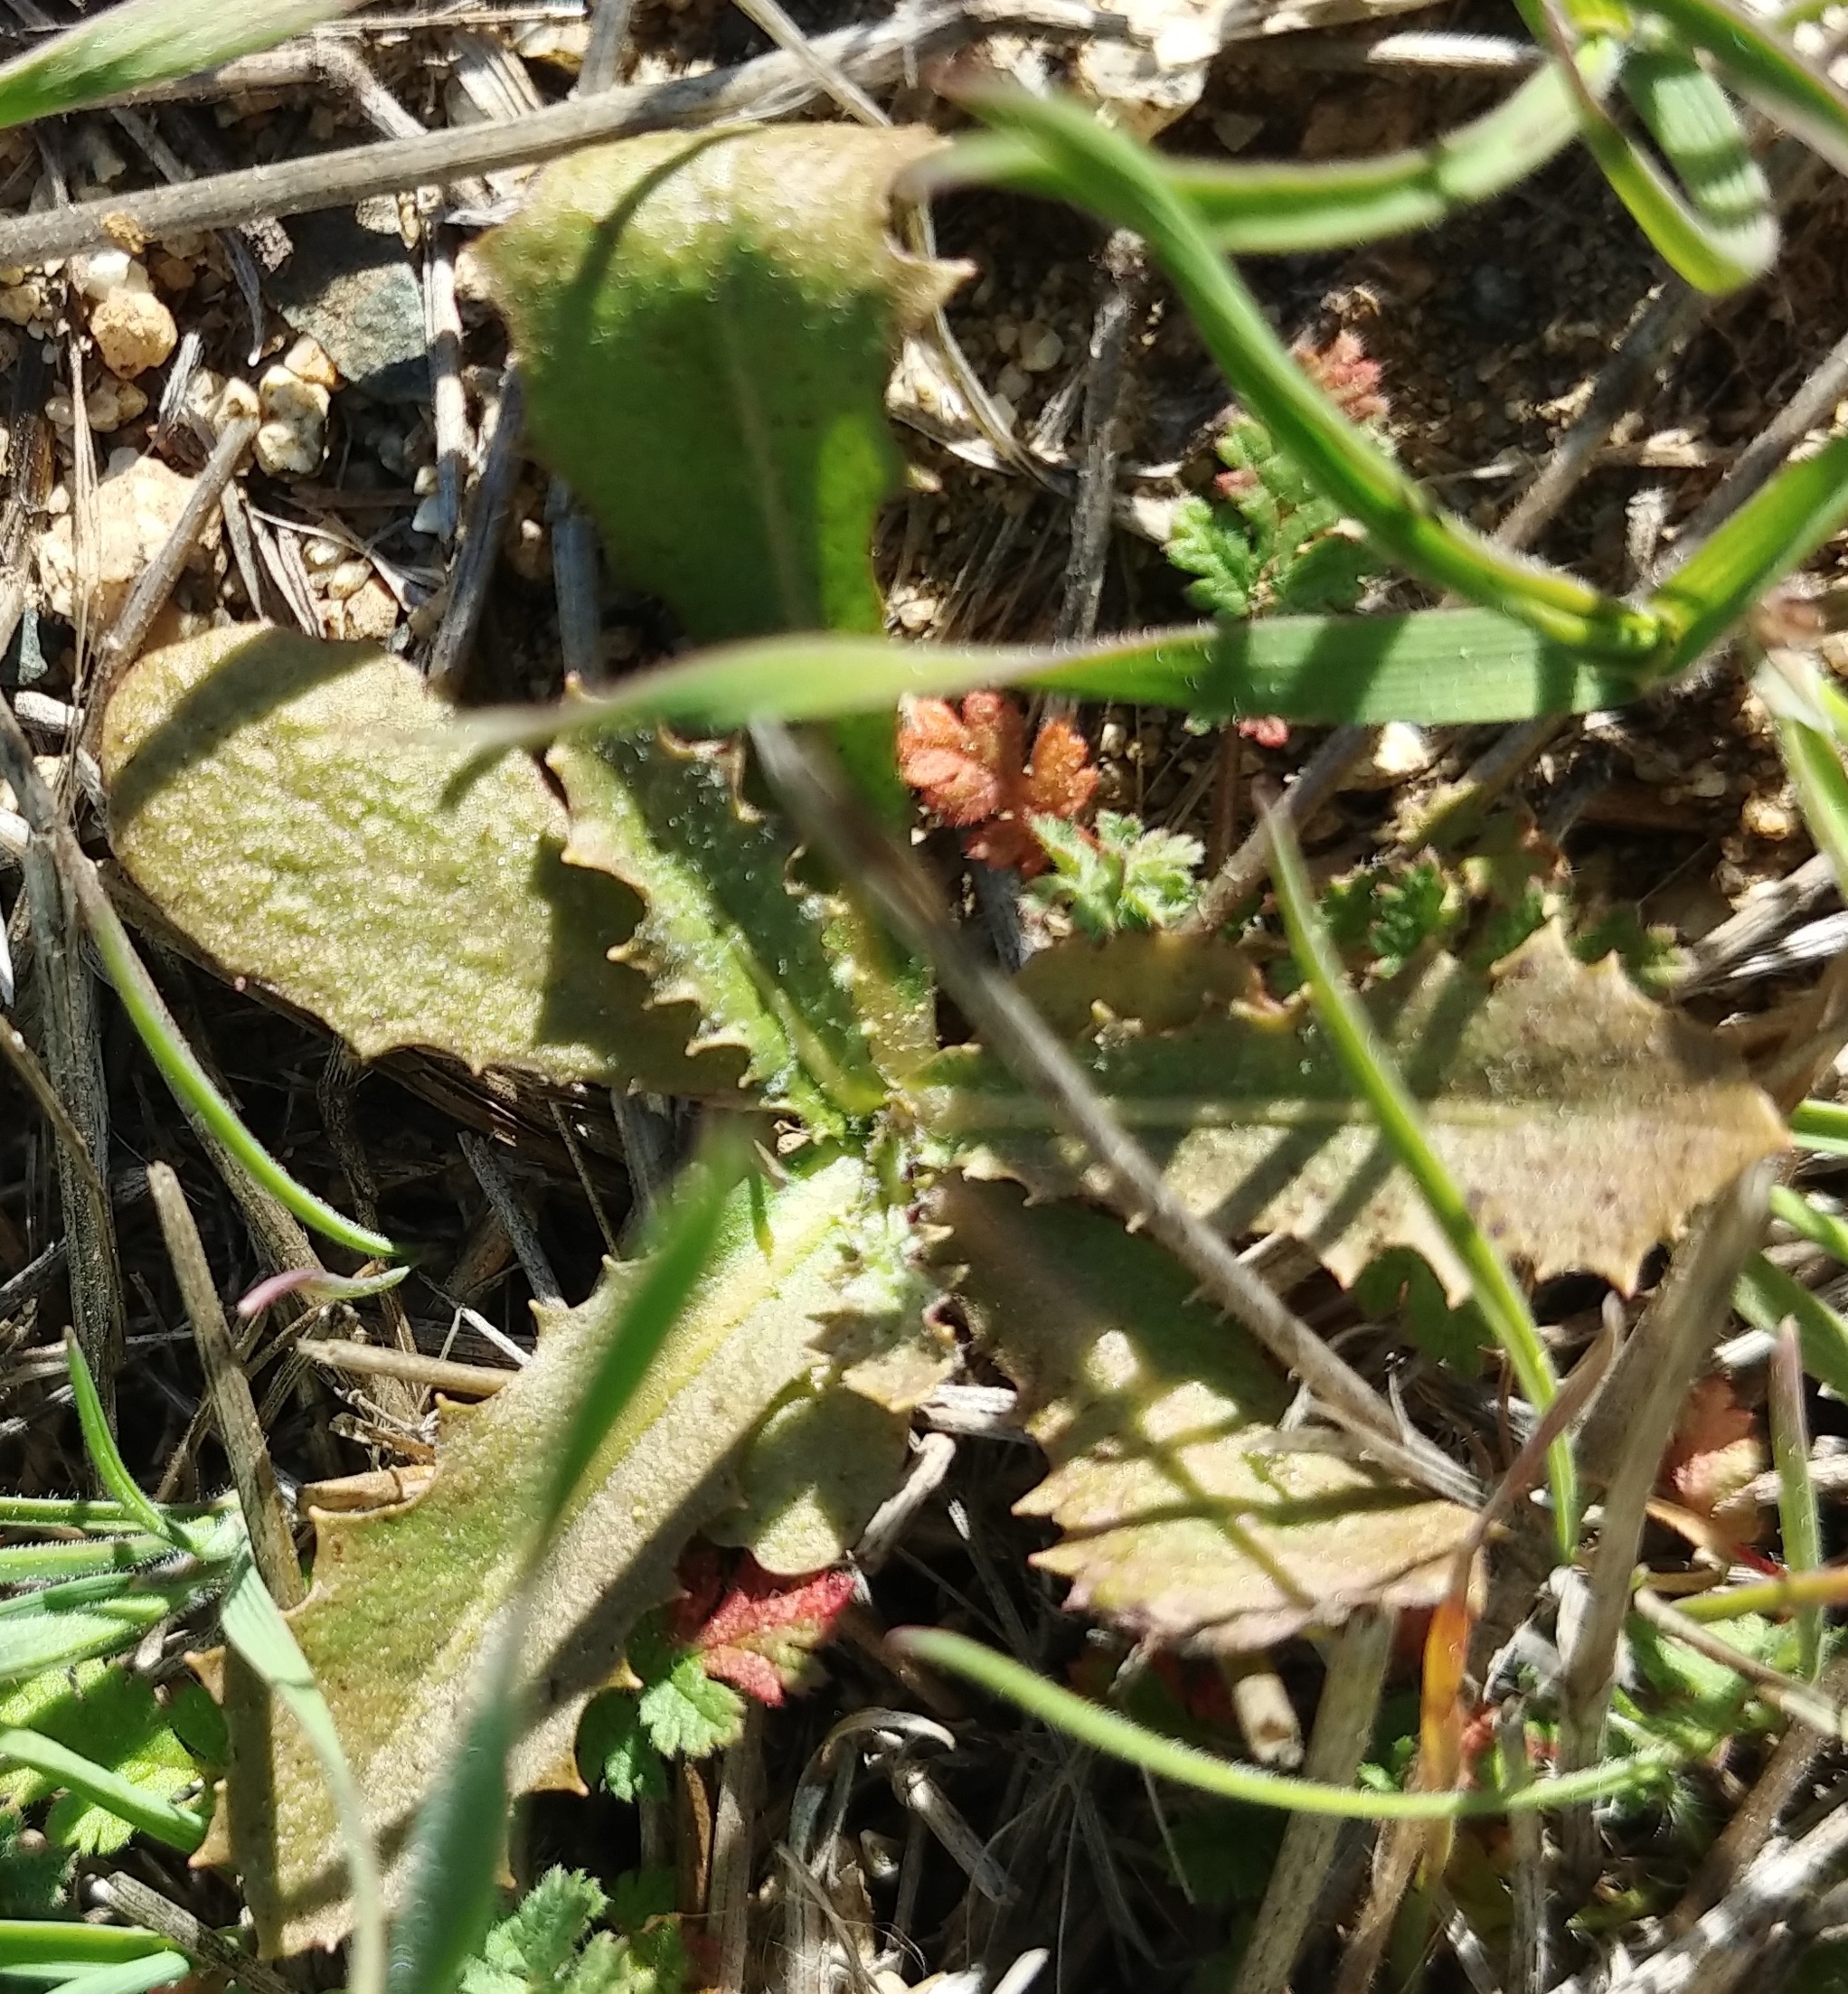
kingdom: Plantae
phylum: Tracheophyta
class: Magnoliopsida
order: Asterales
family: Asteraceae
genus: Hypochaeris
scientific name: Hypochaeris glabra
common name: Smooth catsear
